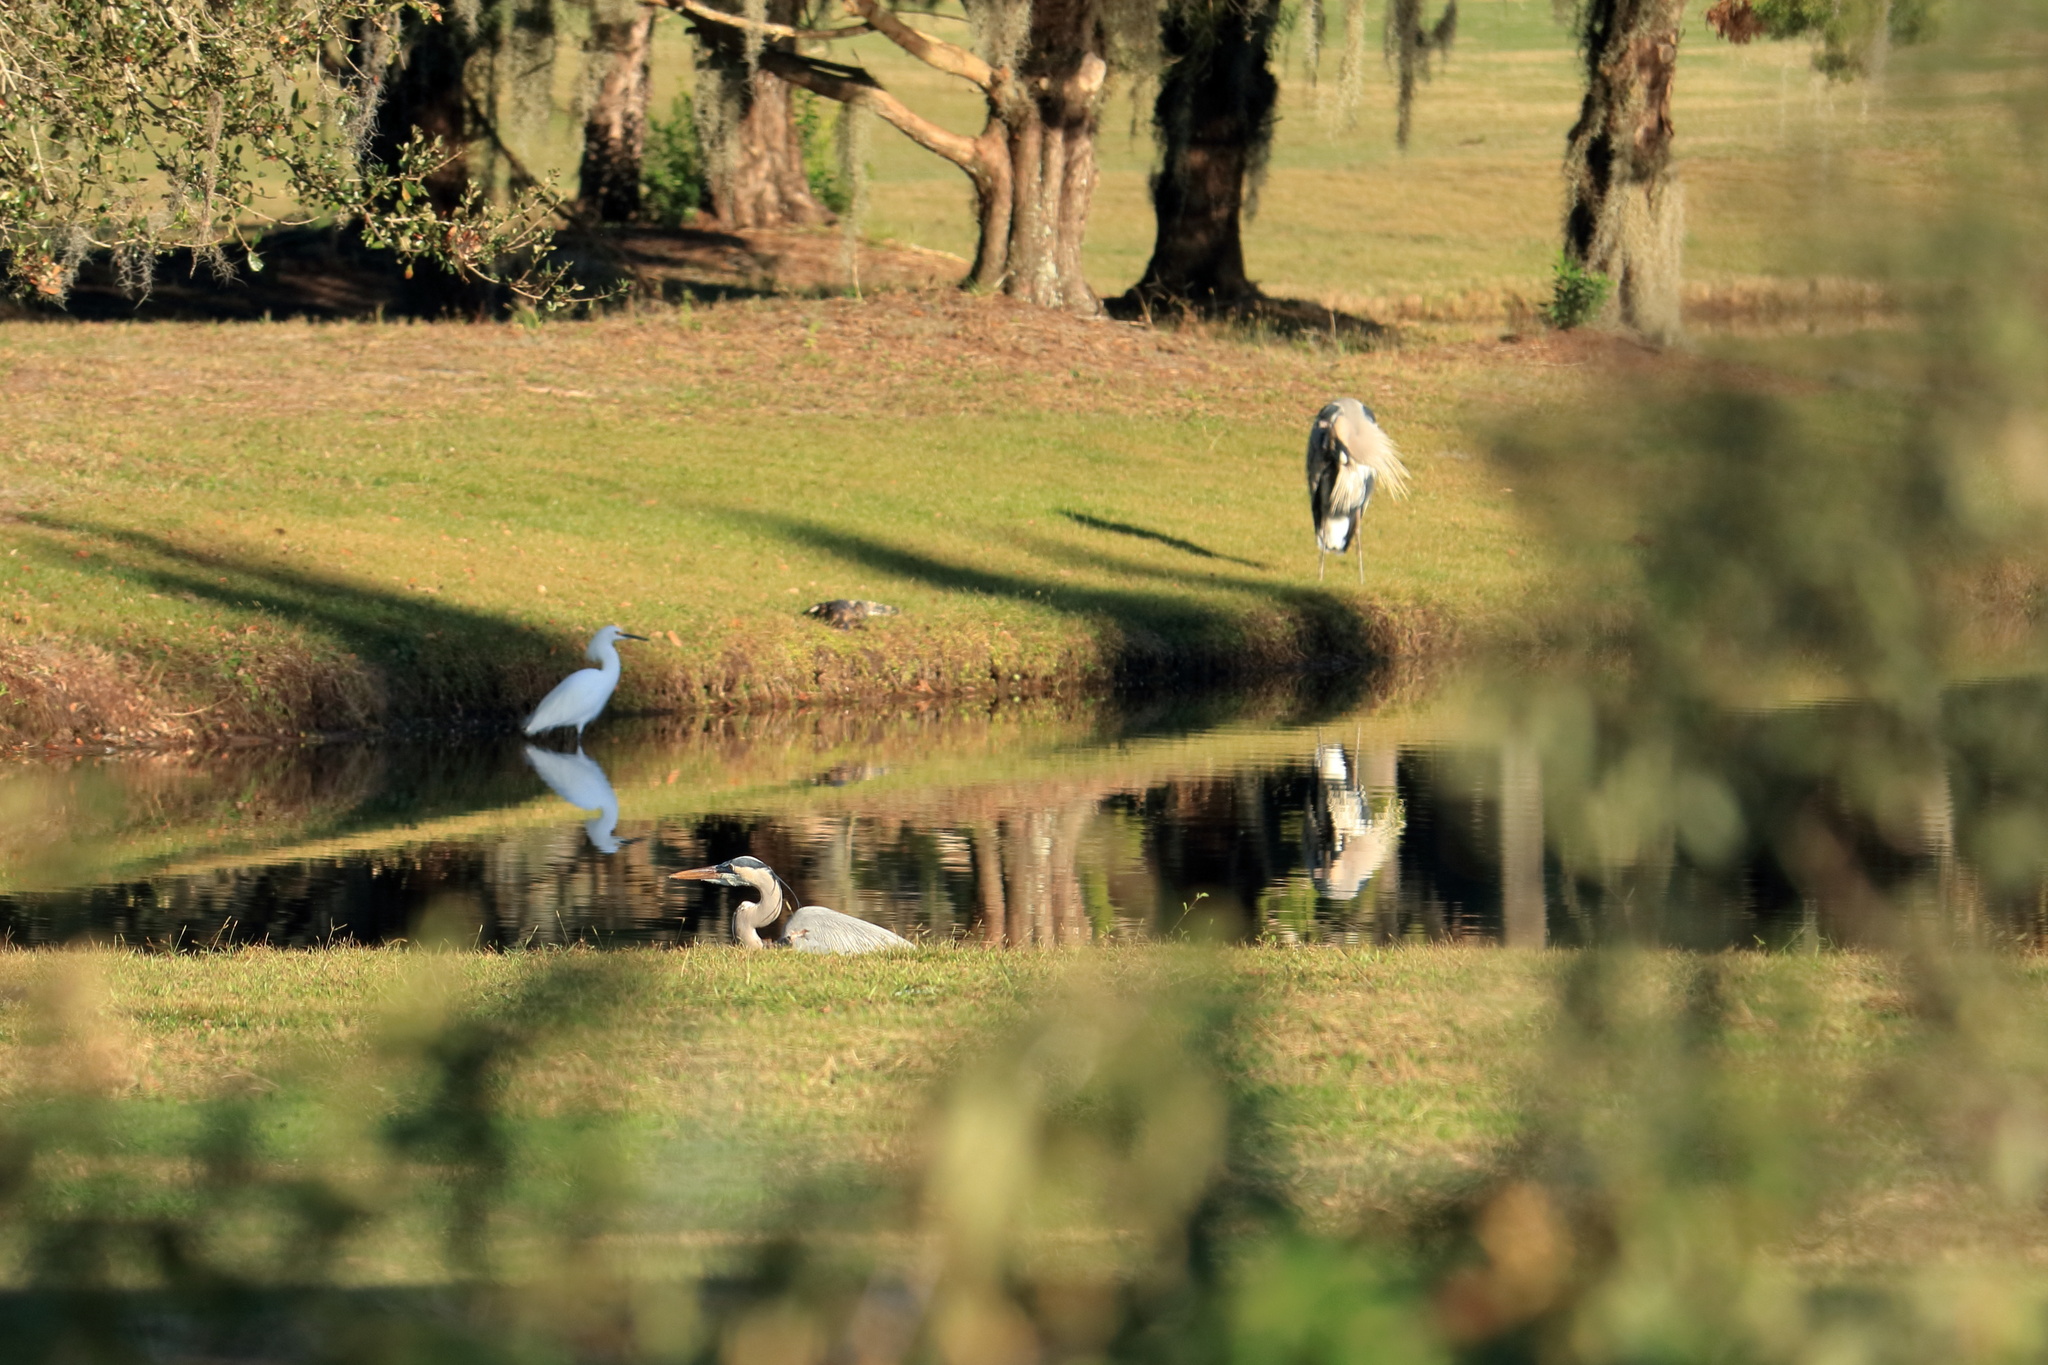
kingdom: Animalia
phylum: Chordata
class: Aves
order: Pelecaniformes
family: Ardeidae
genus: Ardea
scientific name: Ardea herodias
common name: Great blue heron
